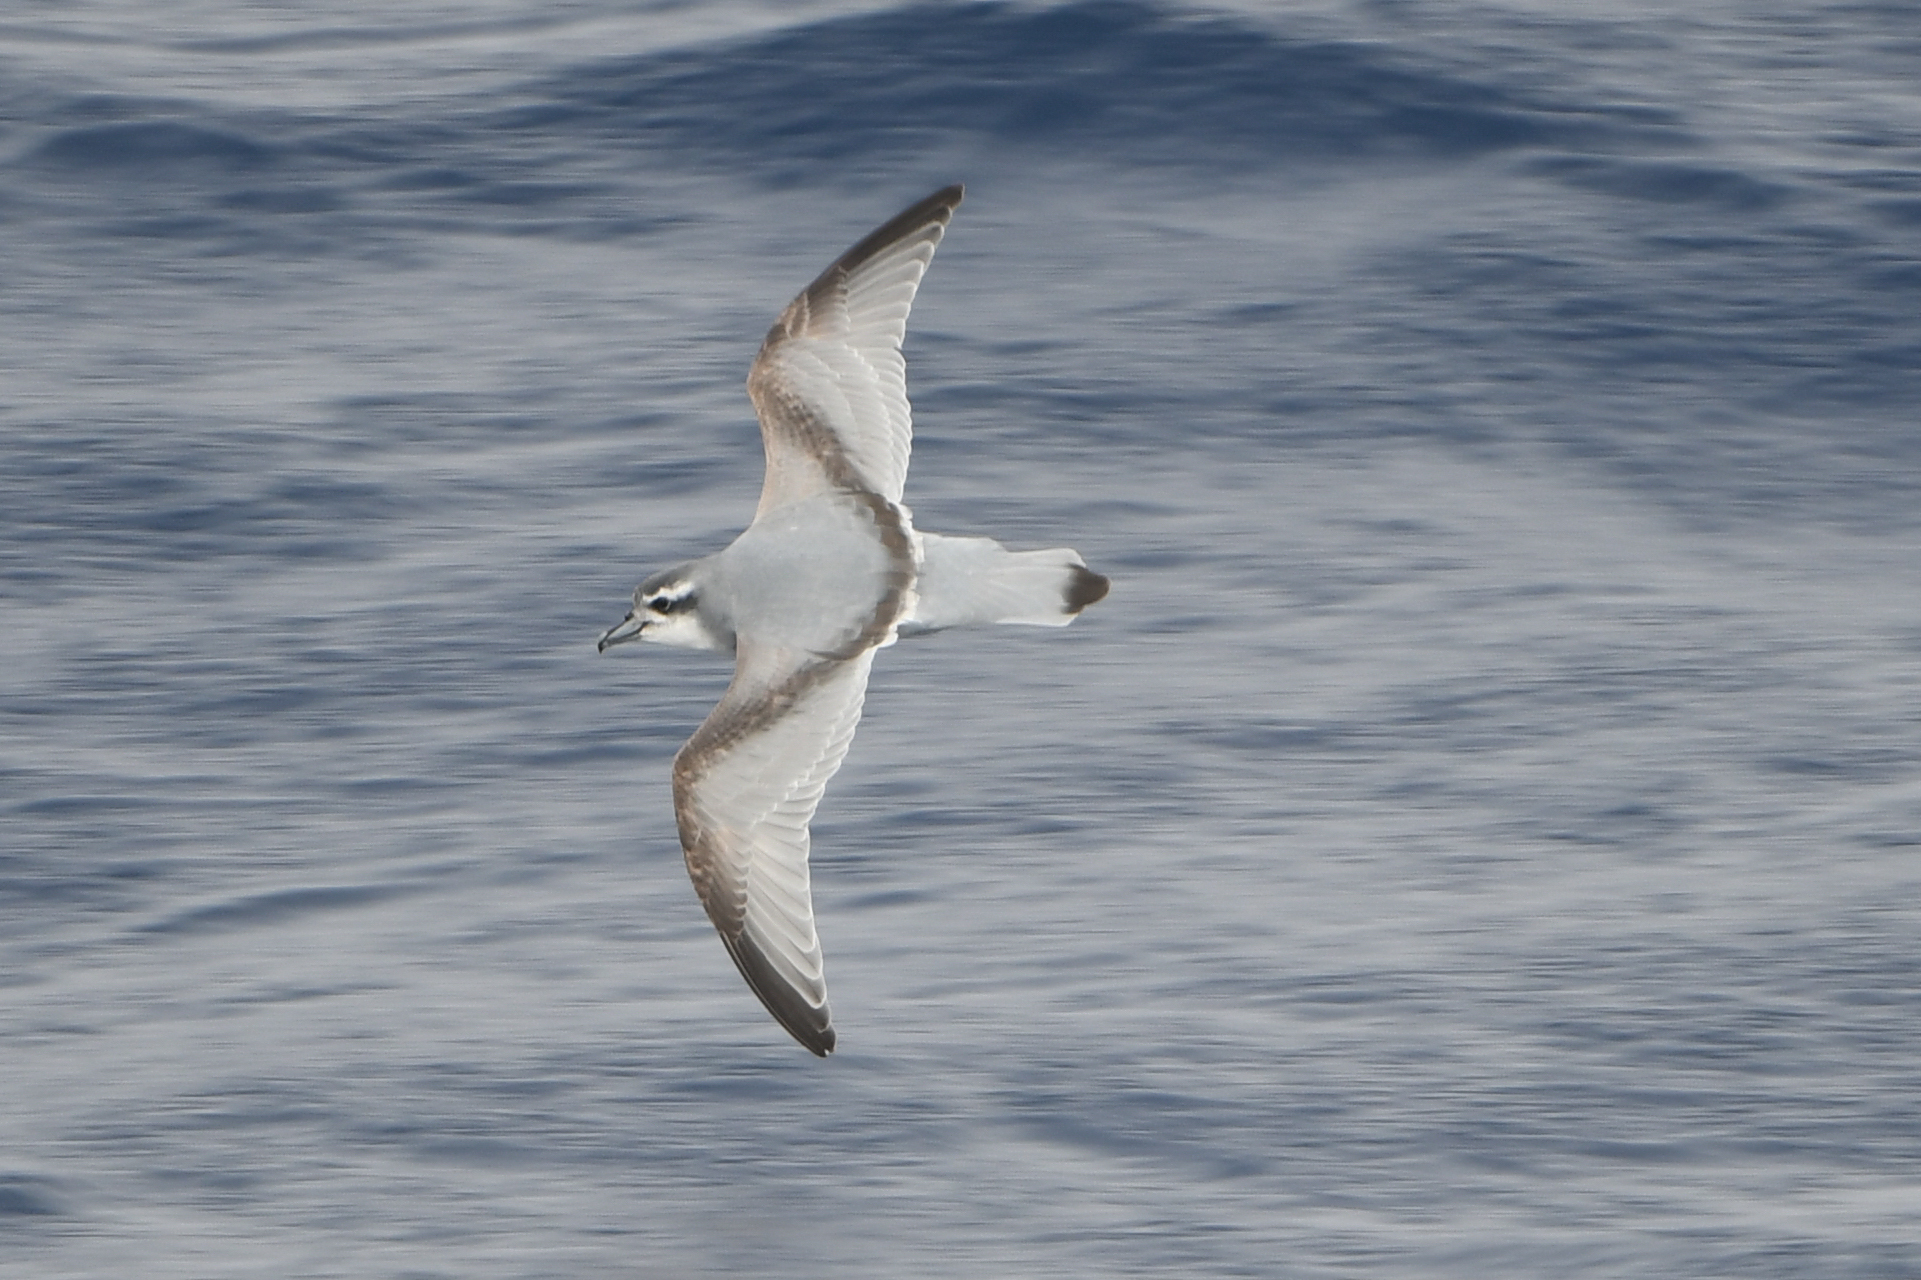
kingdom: Animalia
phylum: Chordata
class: Aves
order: Procellariiformes
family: Procellariidae
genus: Pachyptila
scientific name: Pachyptila desolata
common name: Antarctic prion
